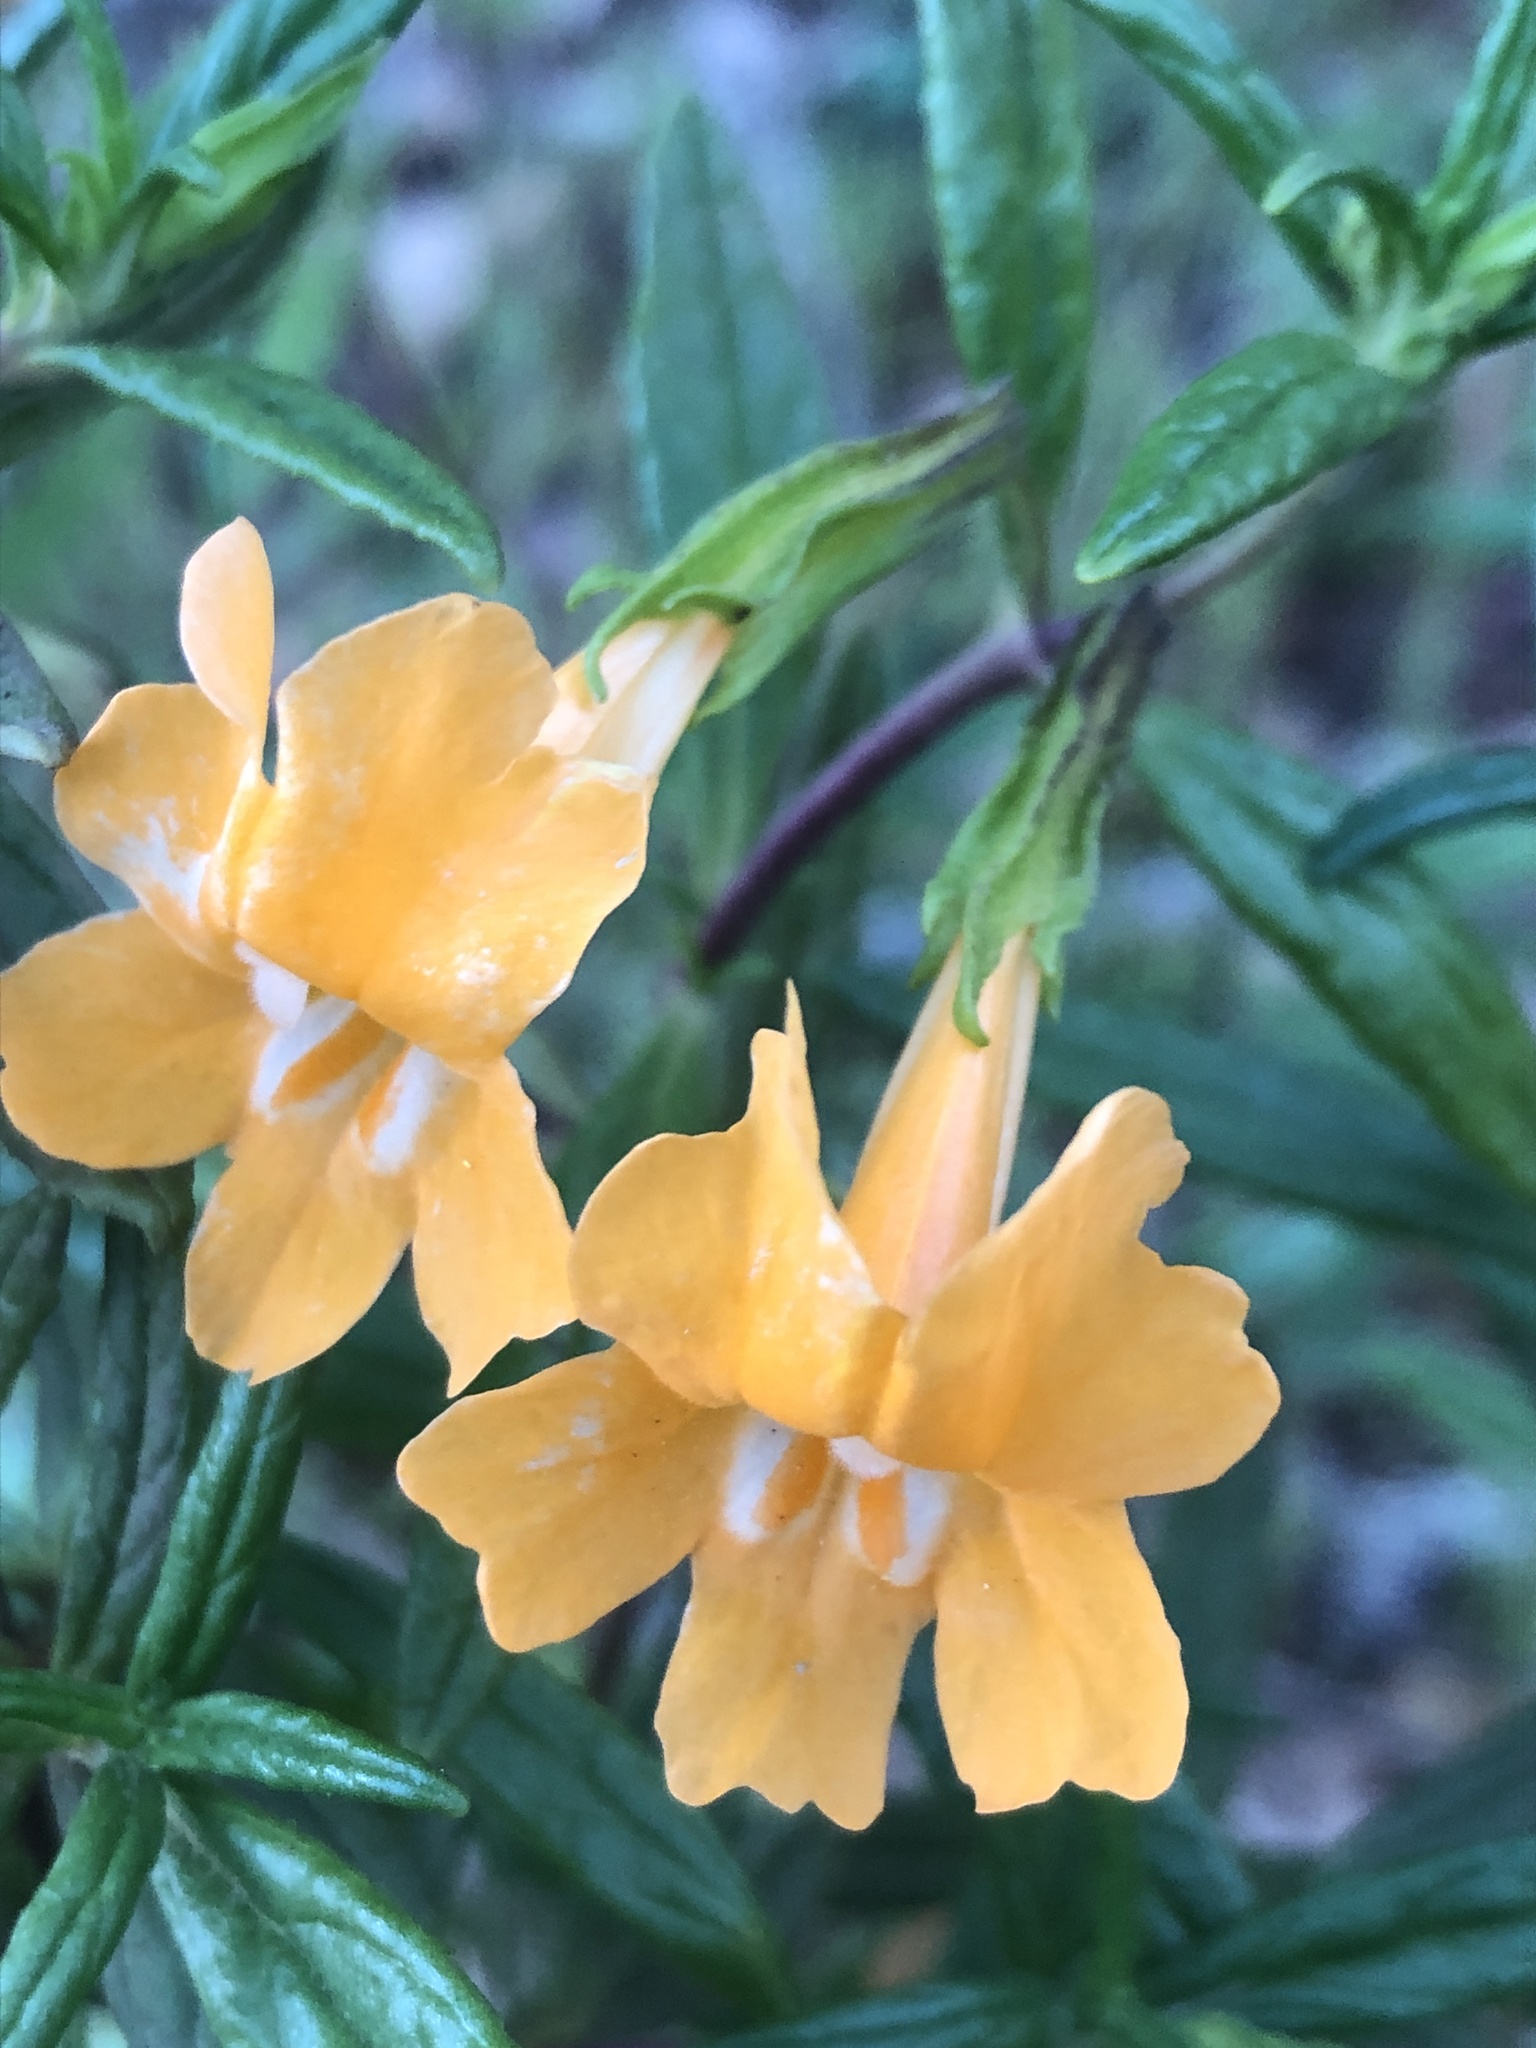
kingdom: Plantae
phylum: Tracheophyta
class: Magnoliopsida
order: Lamiales
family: Phrymaceae
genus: Diplacus
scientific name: Diplacus aurantiacus
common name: Bush monkey-flower
